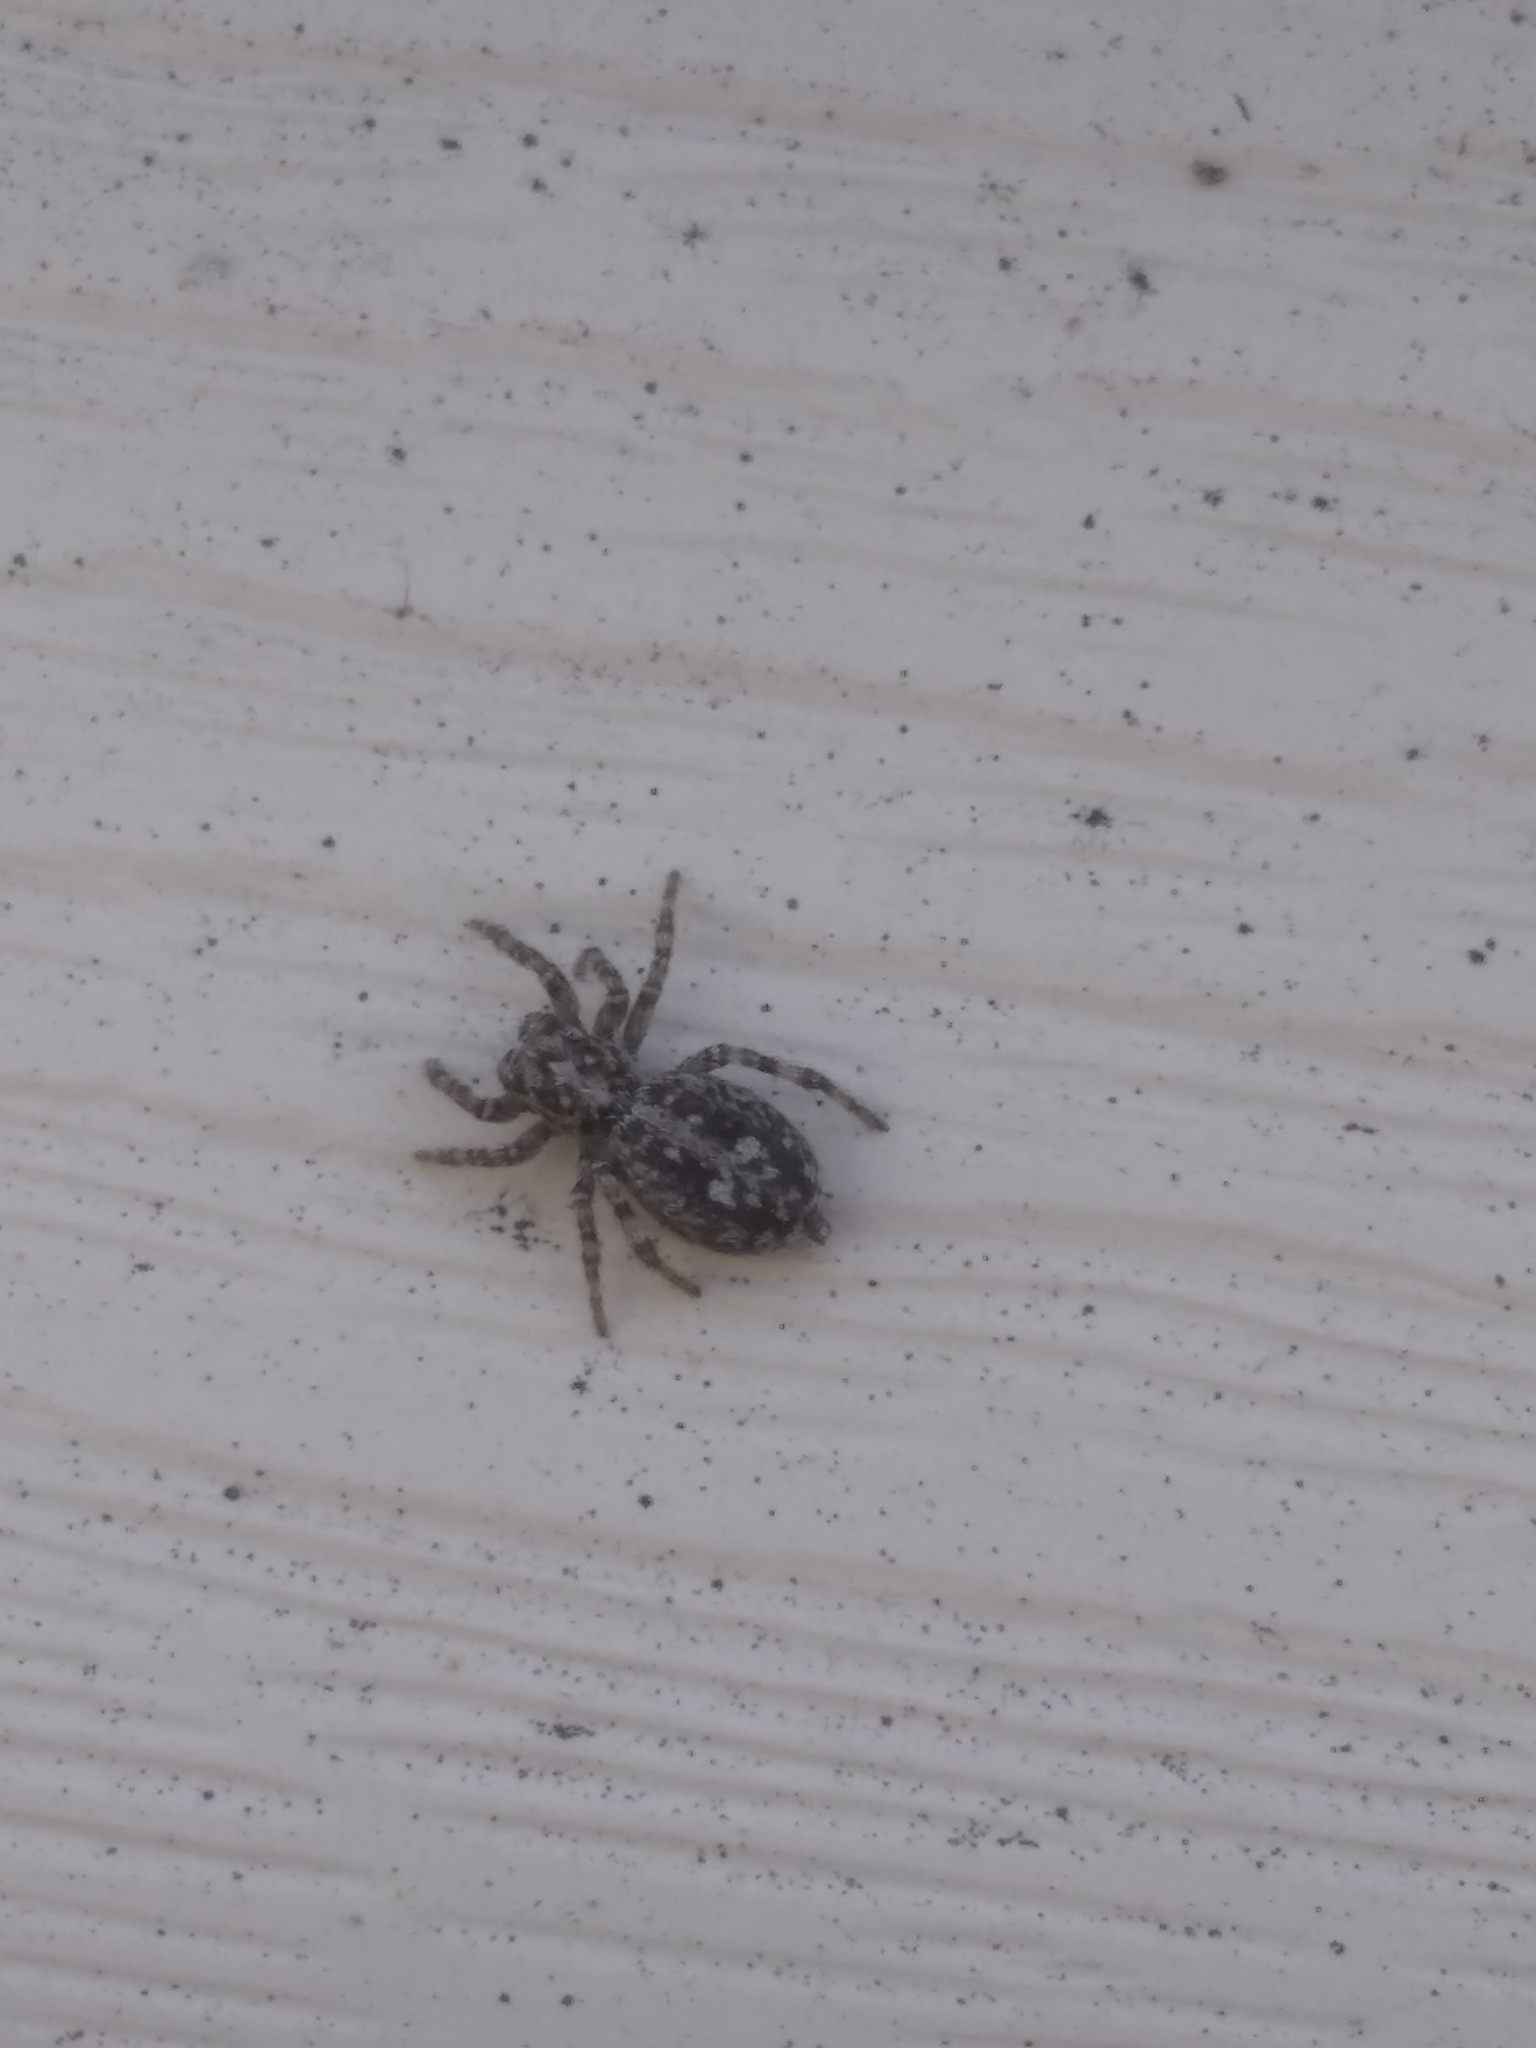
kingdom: Animalia
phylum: Arthropoda
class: Arachnida
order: Araneae
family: Salticidae
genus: Attulus
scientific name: Attulus terebratus
